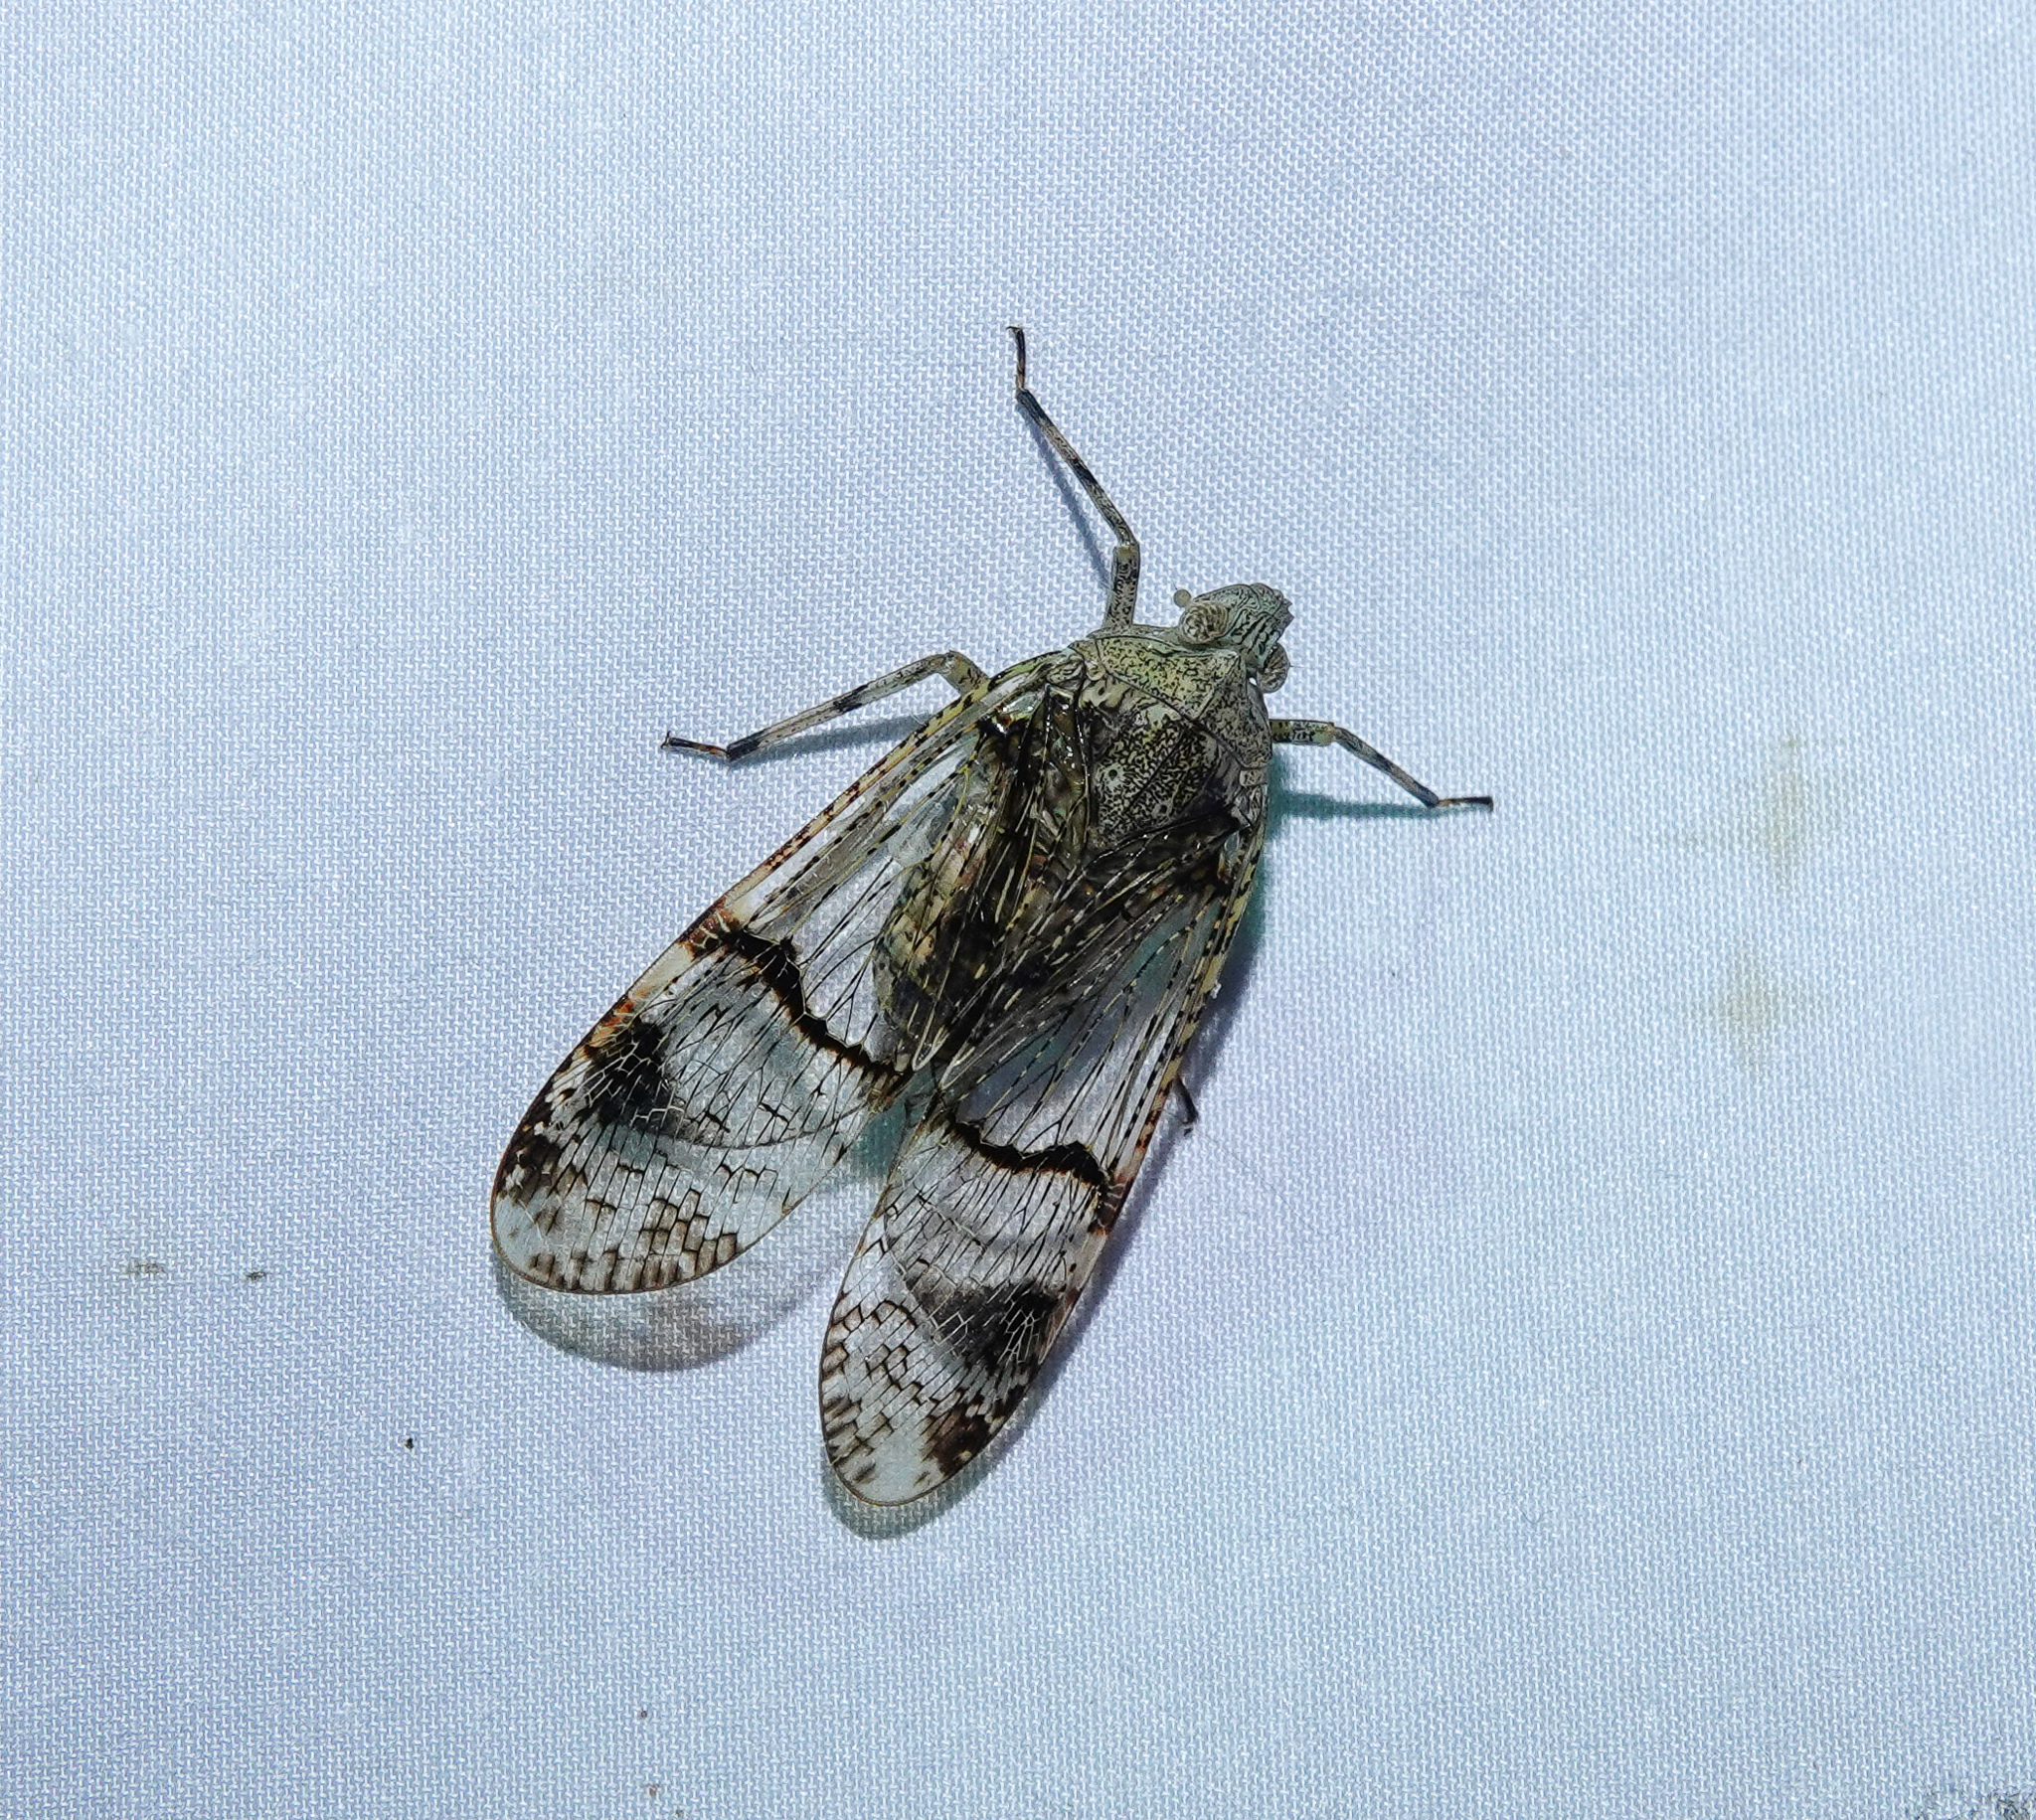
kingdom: Animalia
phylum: Arthropoda
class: Insecta
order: Hemiptera
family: Fulgoridae
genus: Dichoptera
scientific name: Dichoptera hyalinata
